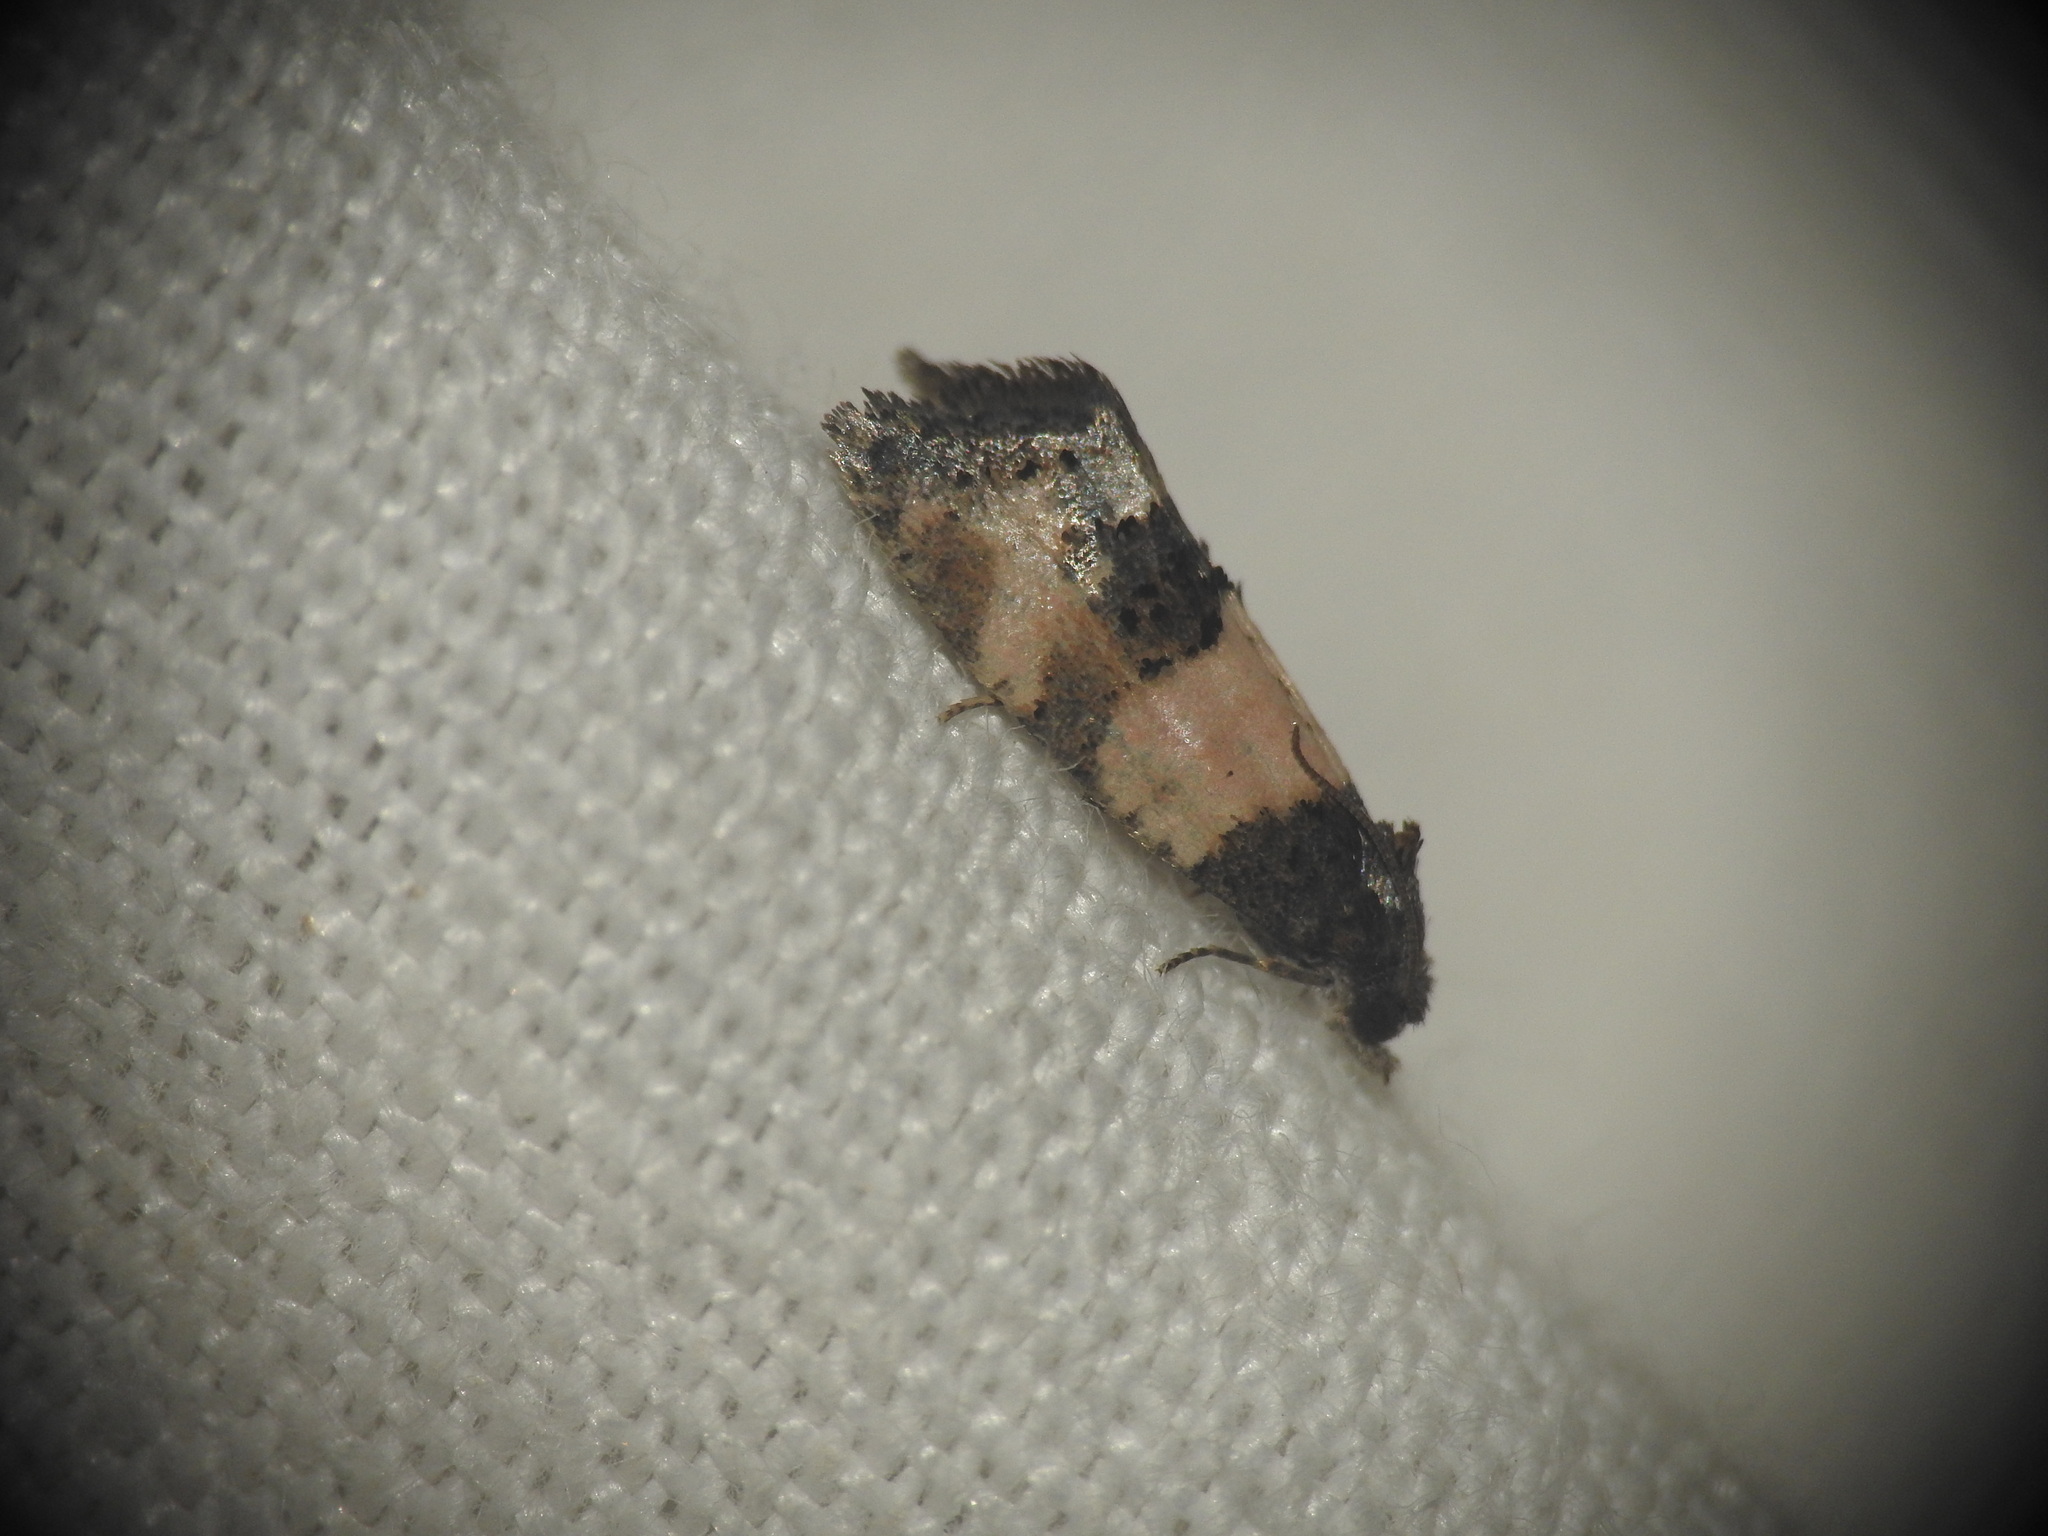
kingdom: Animalia
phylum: Arthropoda
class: Insecta
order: Lepidoptera
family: Tortricidae
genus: Propiromorpha
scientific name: Propiromorpha rhodophana
